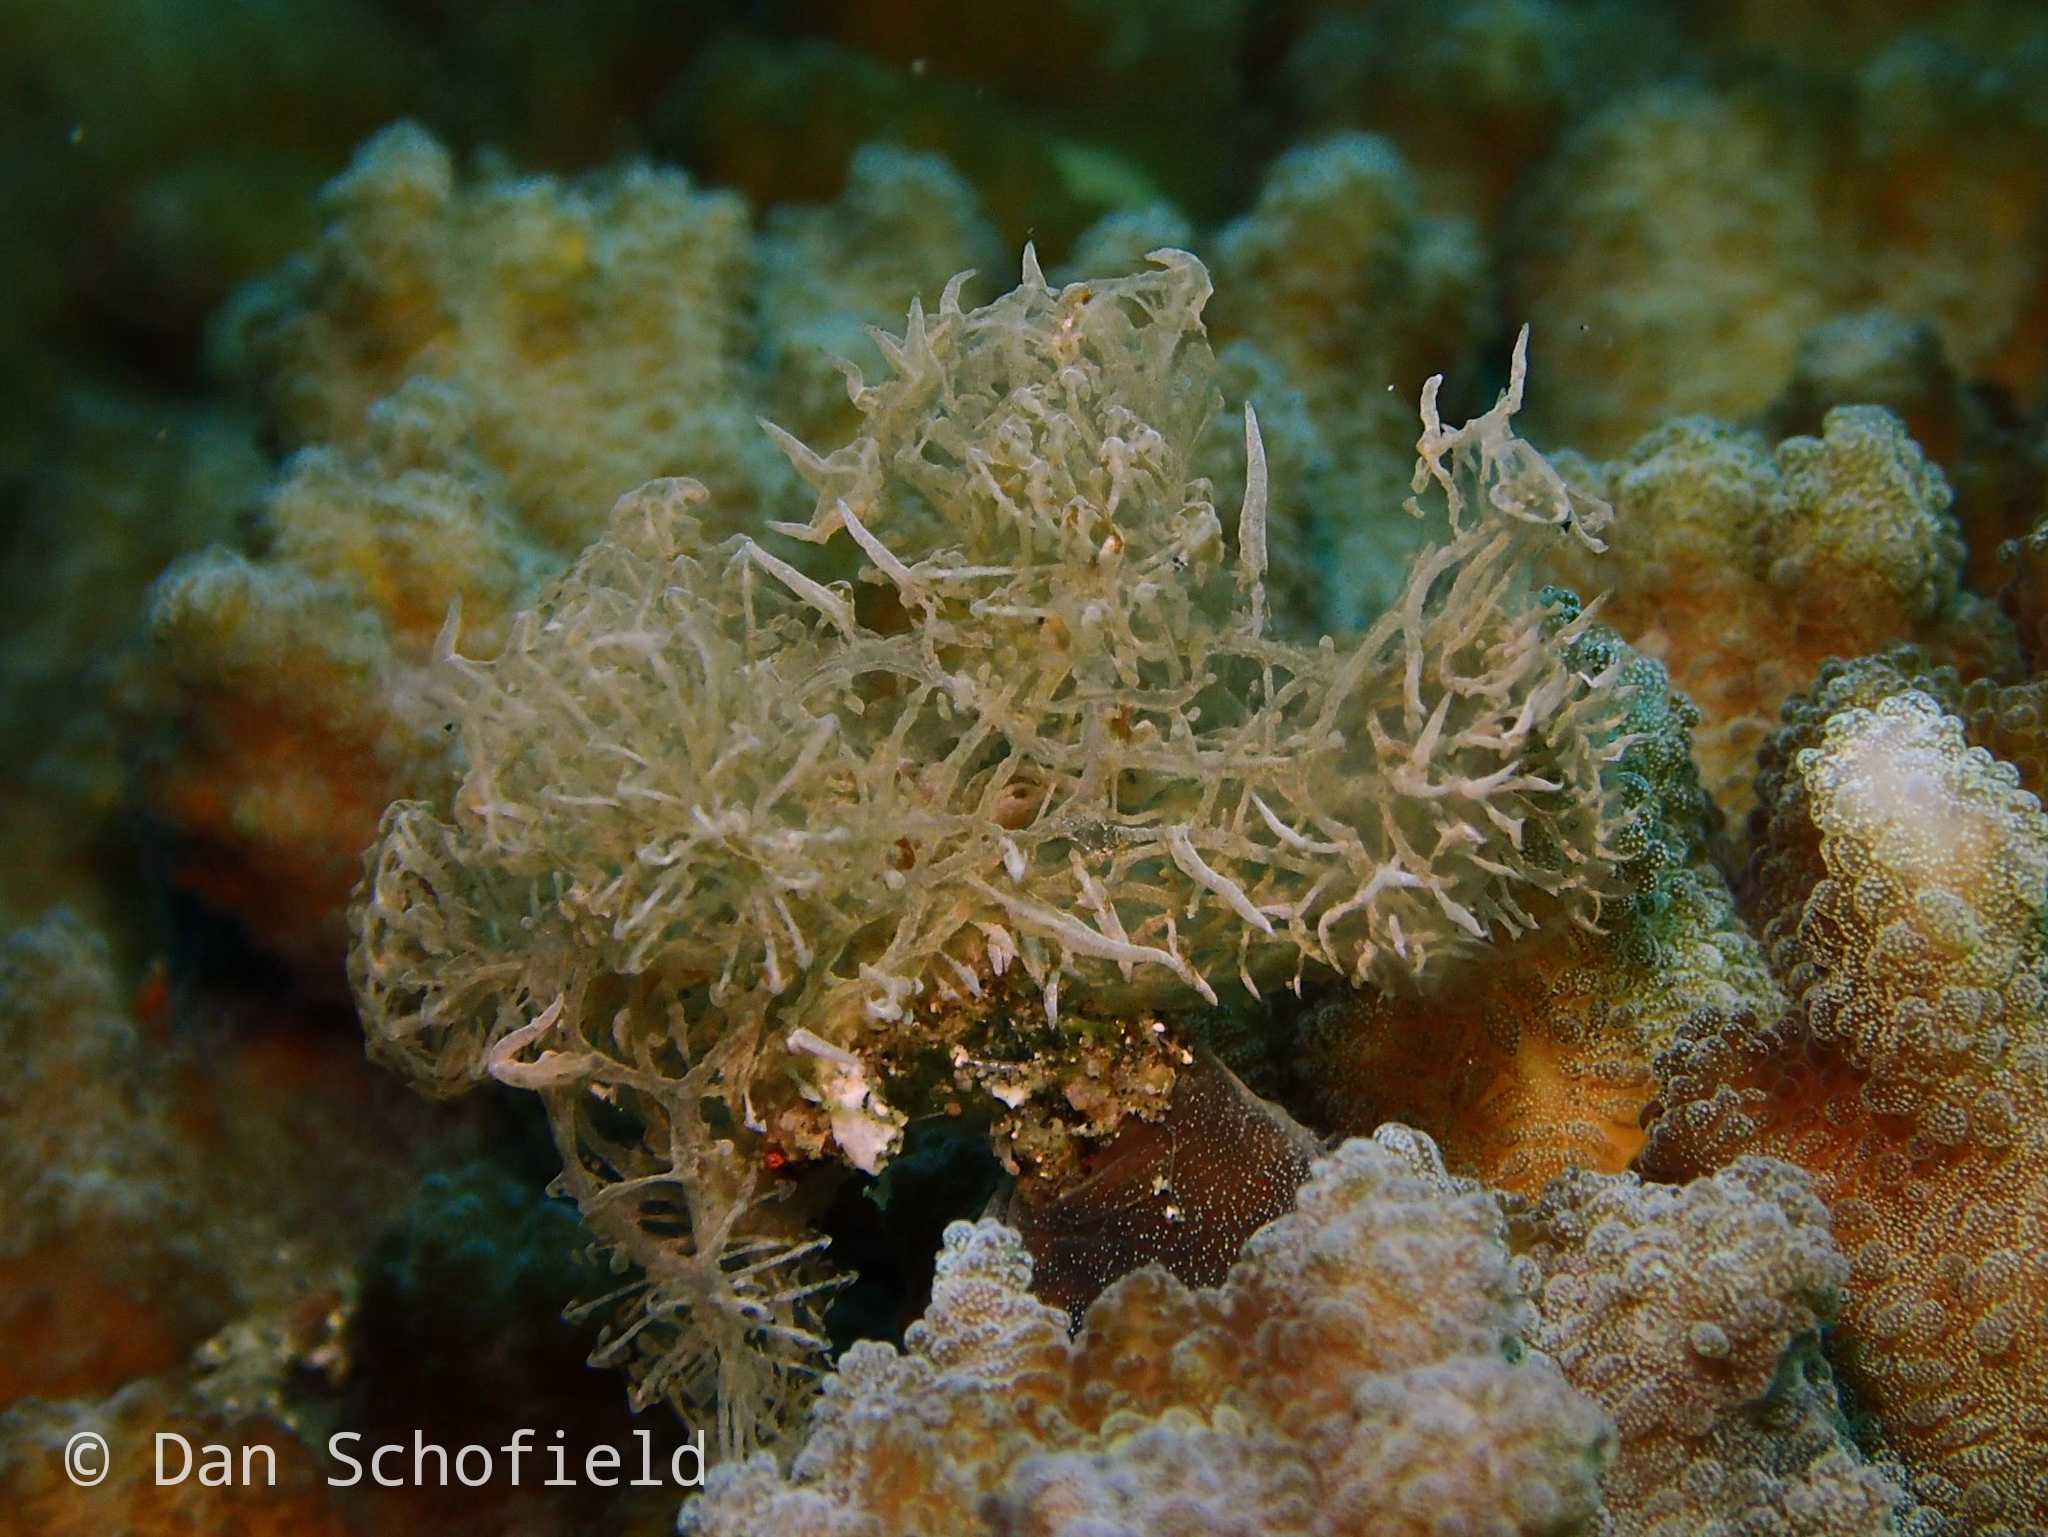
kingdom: Animalia
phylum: Mollusca
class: Gastropoda
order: Nudibranchia
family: Tethydidae
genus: Melibe
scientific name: Melibe colemani
